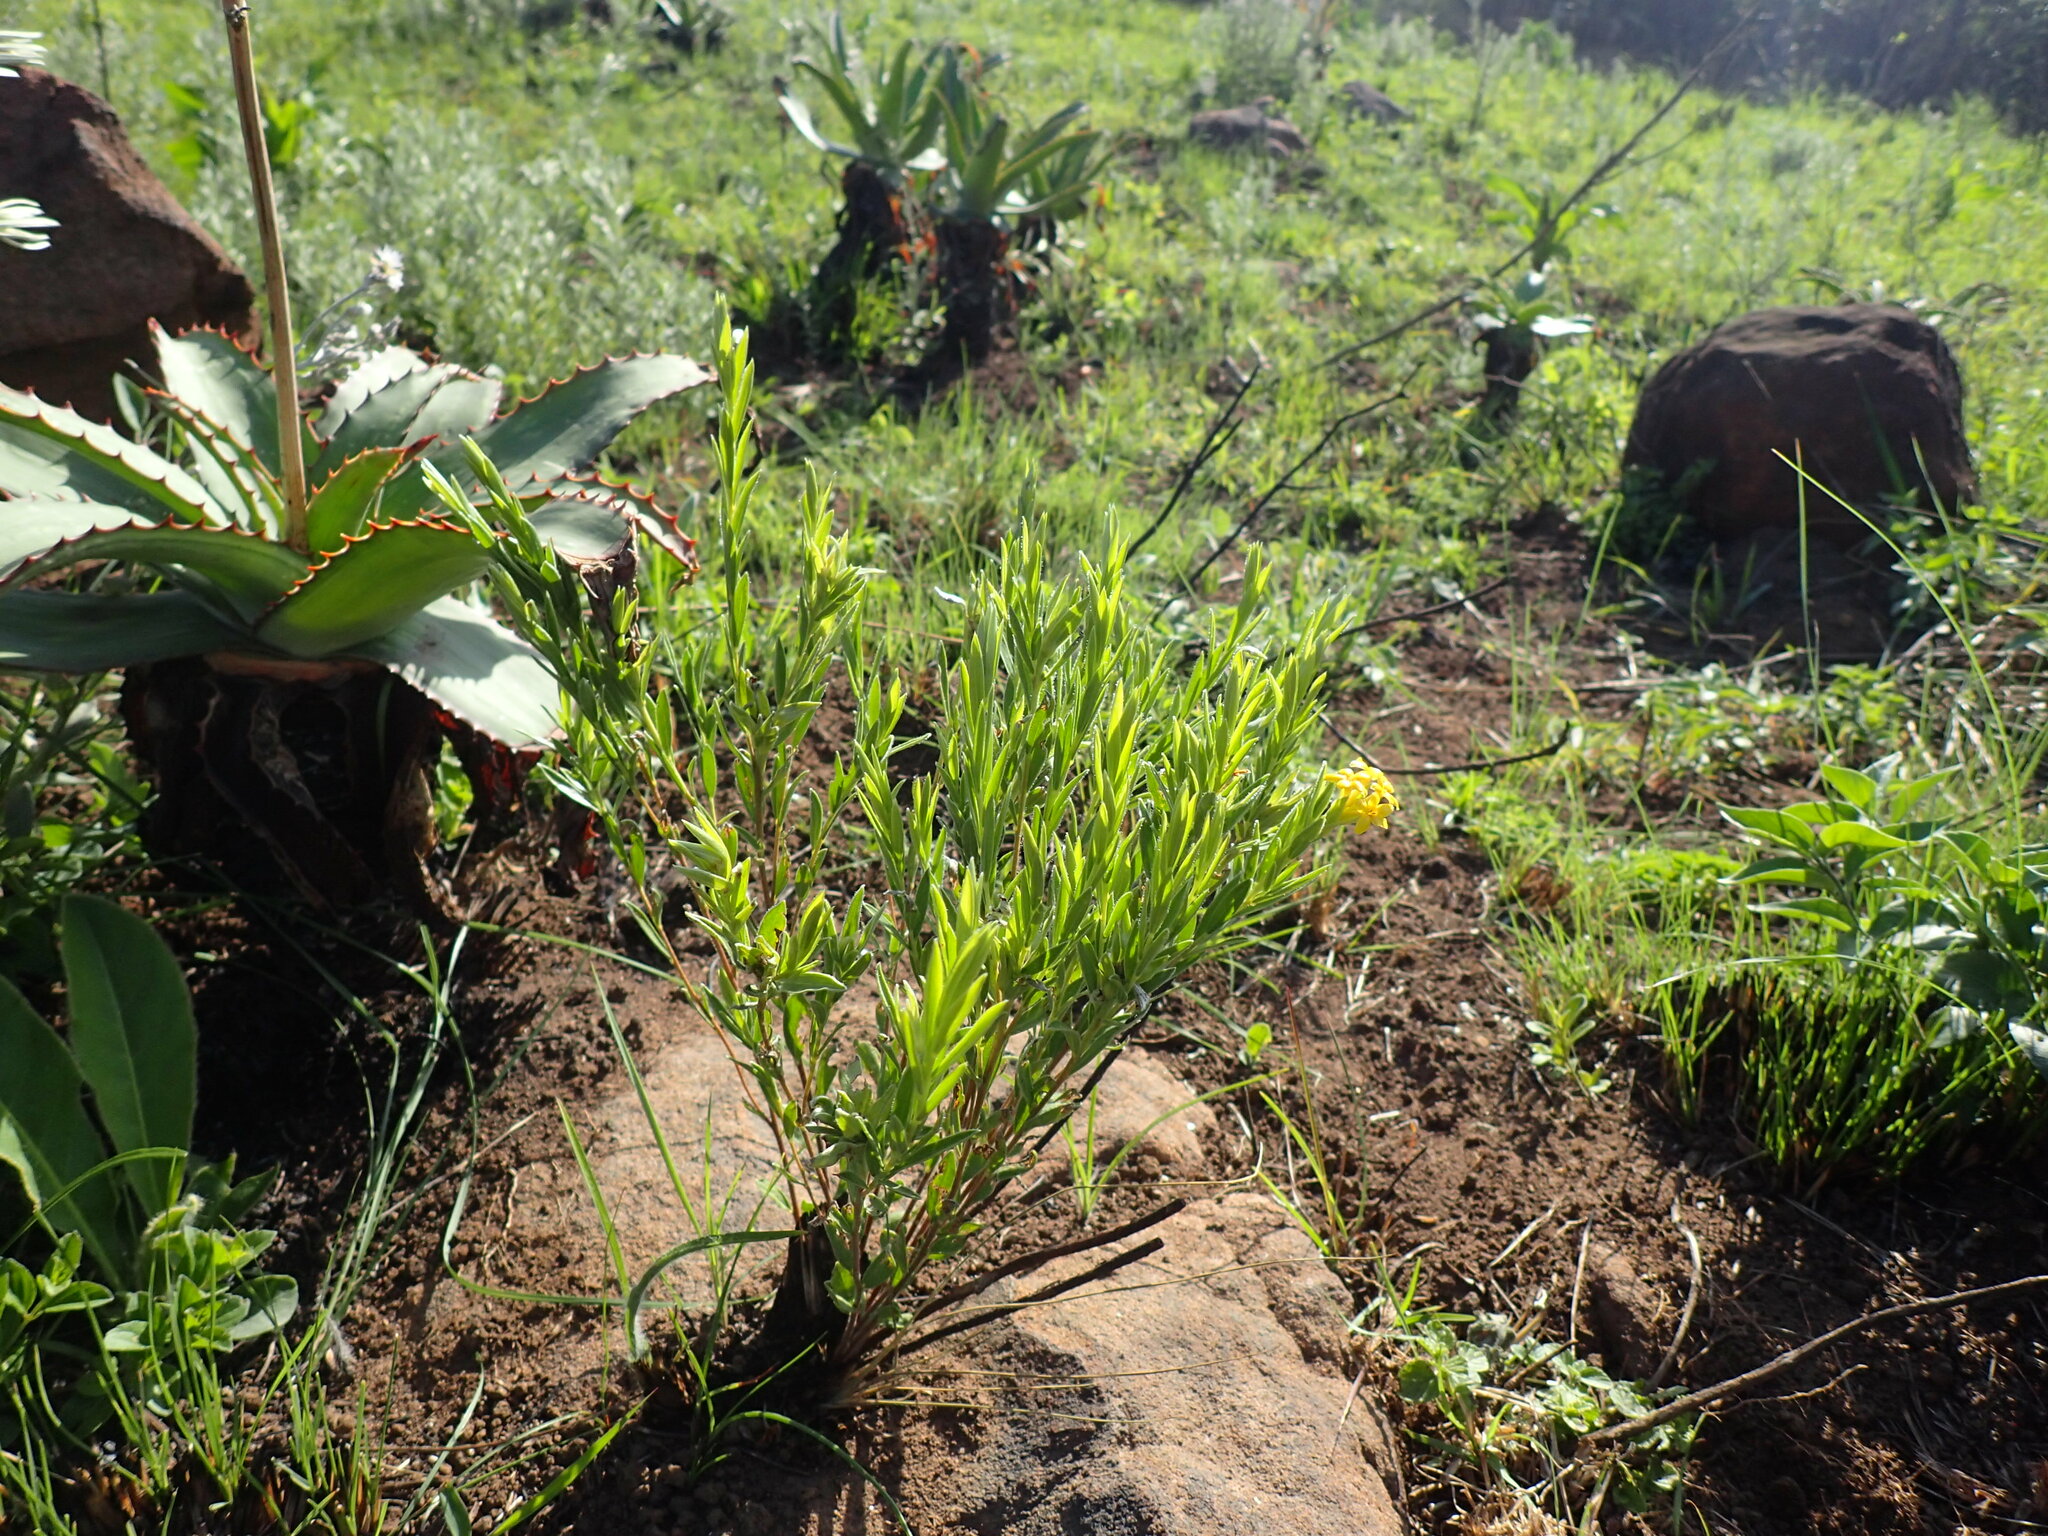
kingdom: Plantae
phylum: Tracheophyta
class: Magnoliopsida
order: Malvales
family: Thymelaeaceae
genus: Gnidia
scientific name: Gnidia caffra
